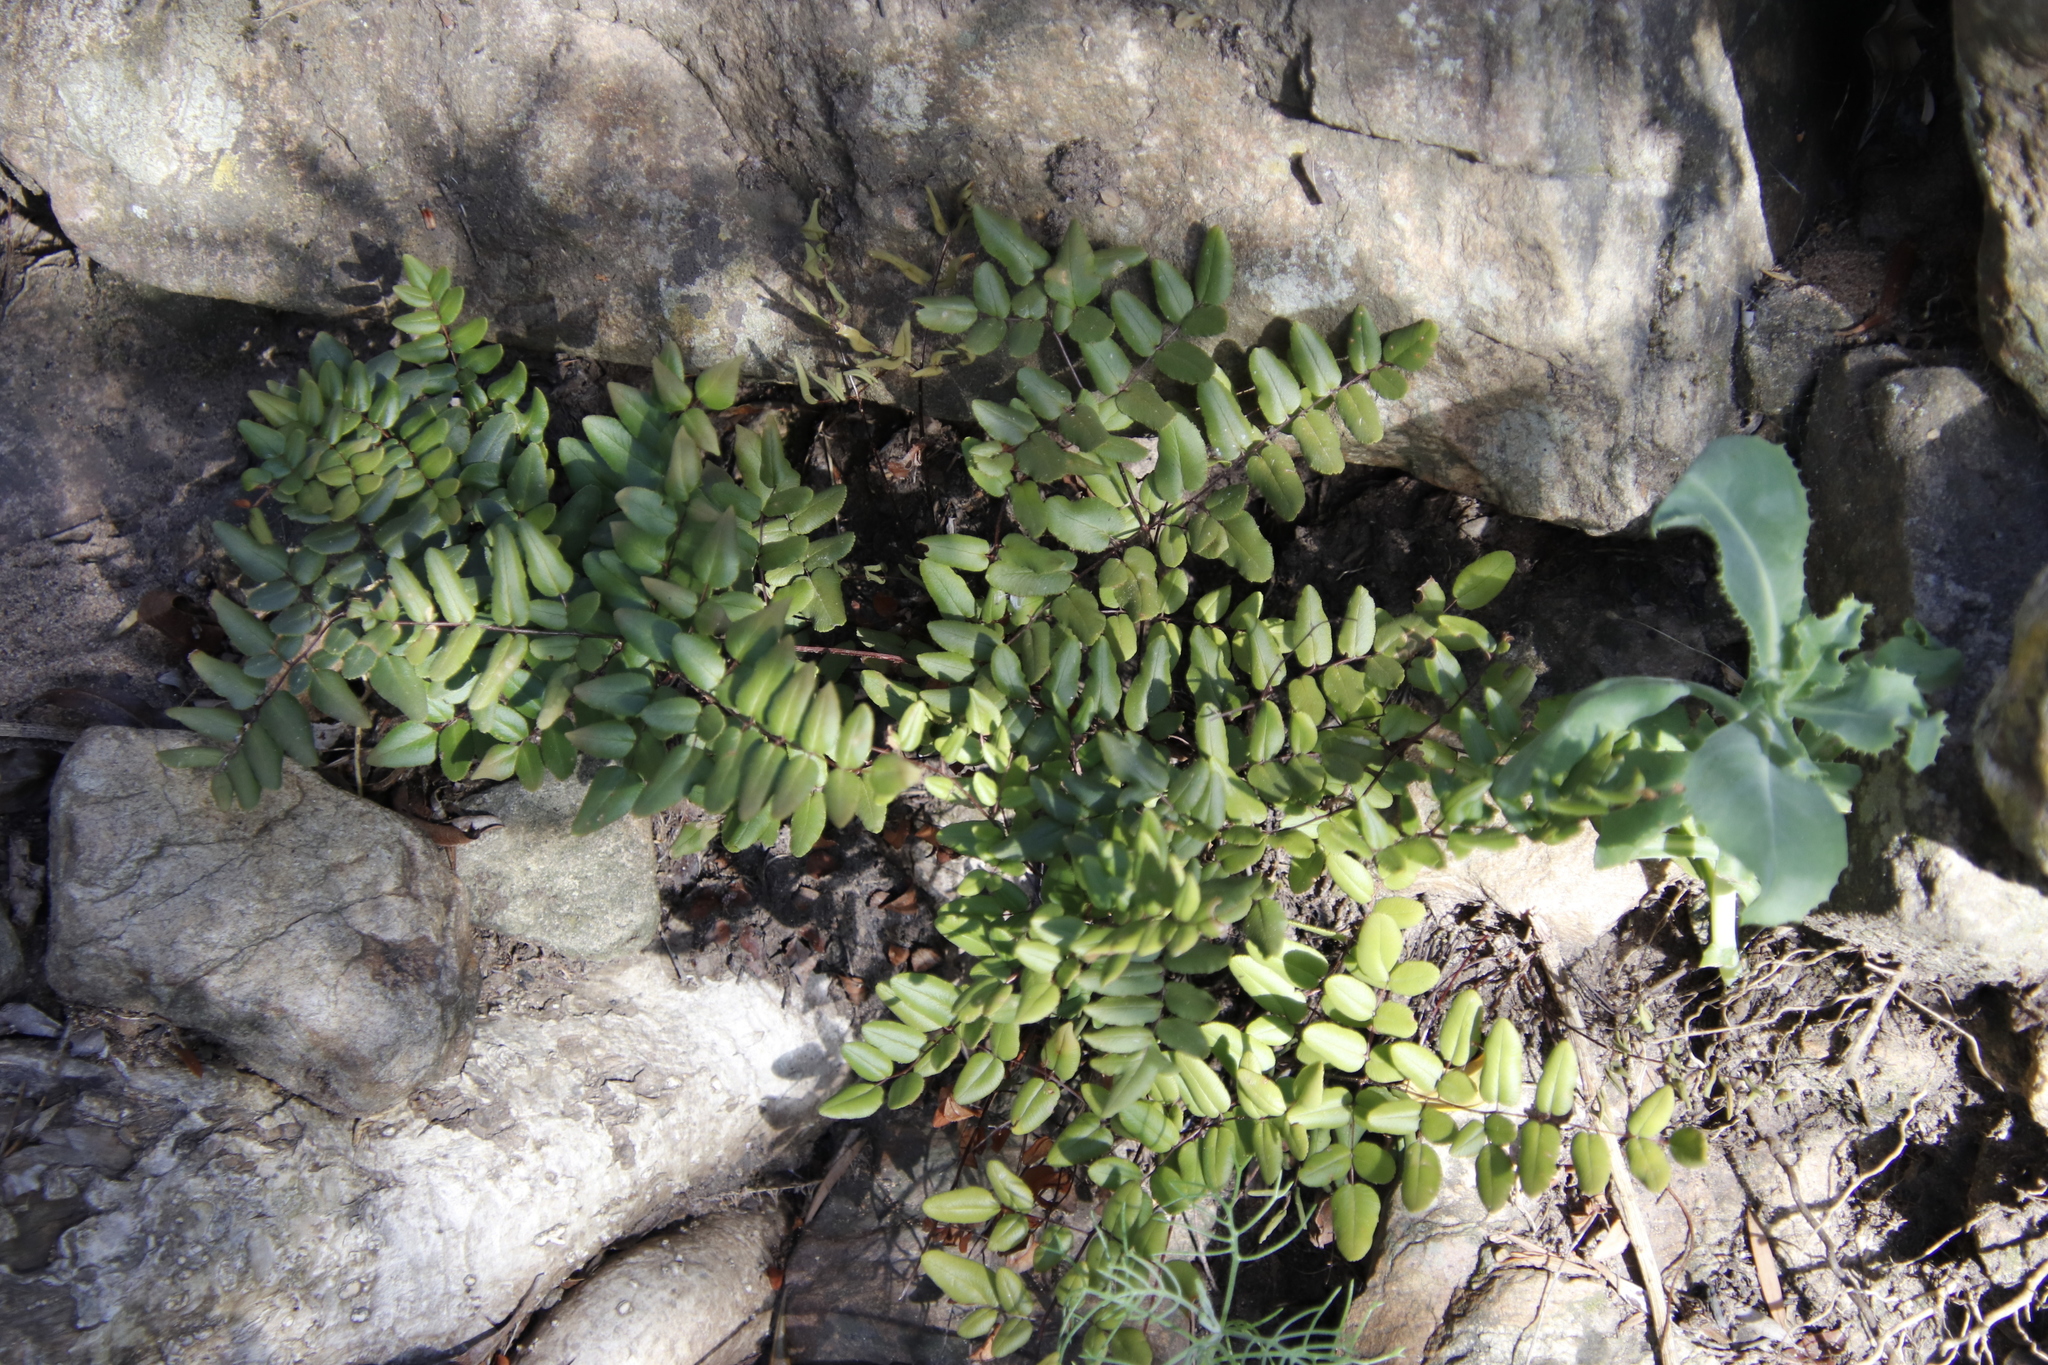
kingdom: Plantae
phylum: Tracheophyta
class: Polypodiopsida
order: Polypodiales
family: Pteridaceae
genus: Pellaea
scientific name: Pellaea pteroides
